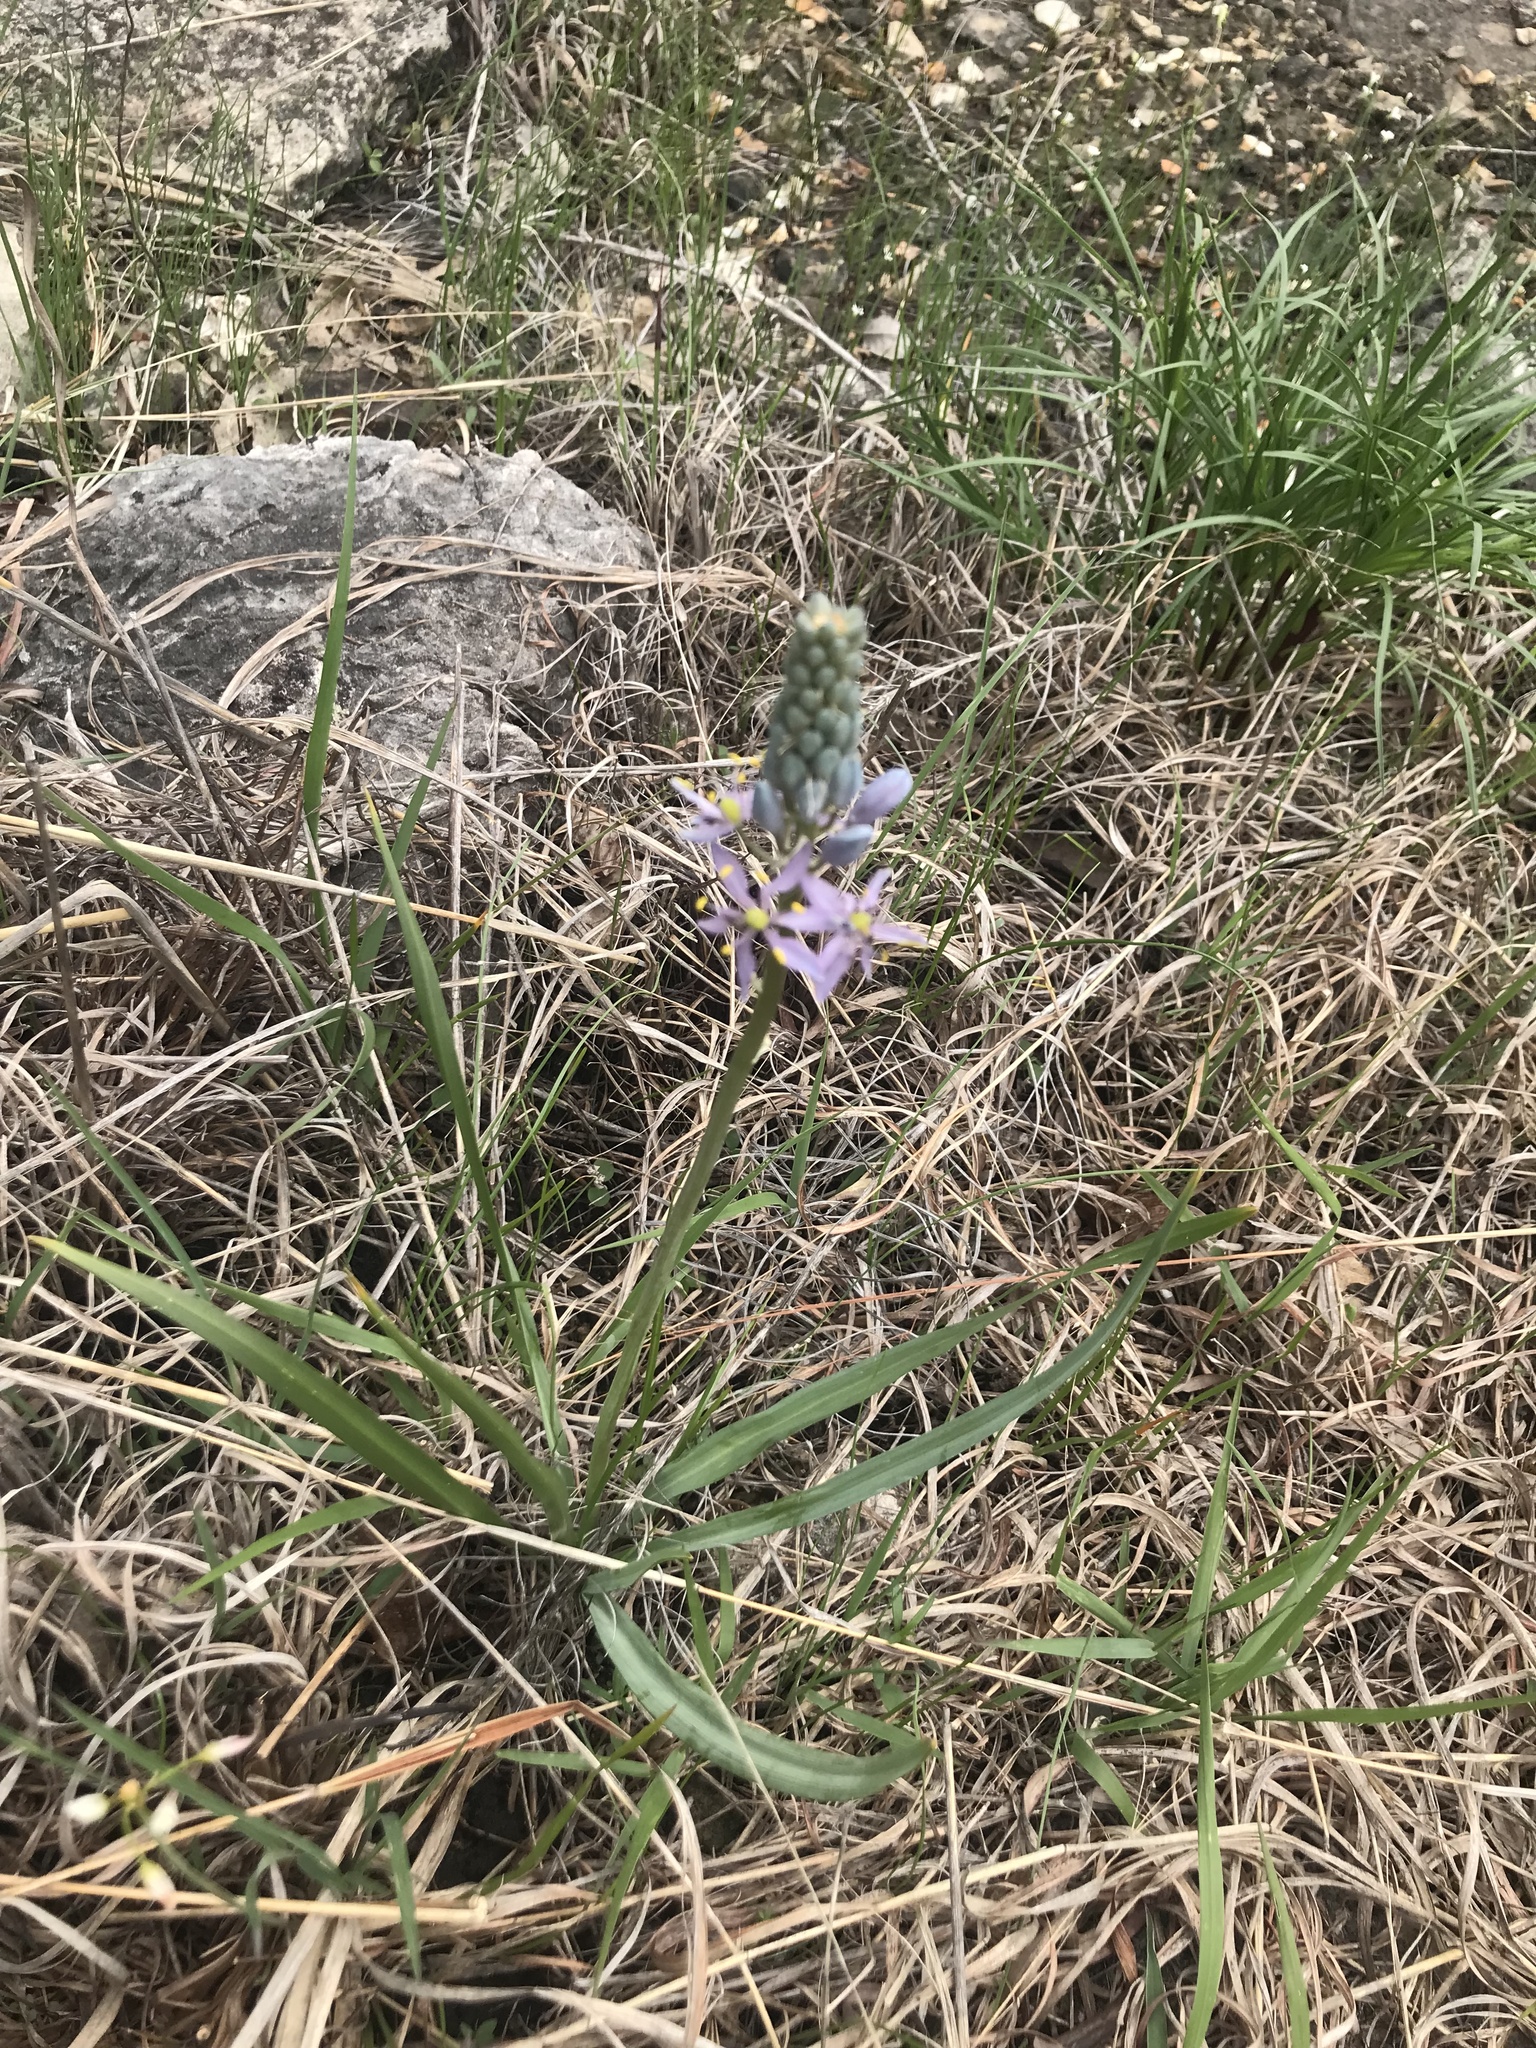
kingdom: Plantae
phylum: Tracheophyta
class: Liliopsida
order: Asparagales
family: Asparagaceae
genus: Camassia
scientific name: Camassia scilloides
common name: Wild hyacinth
